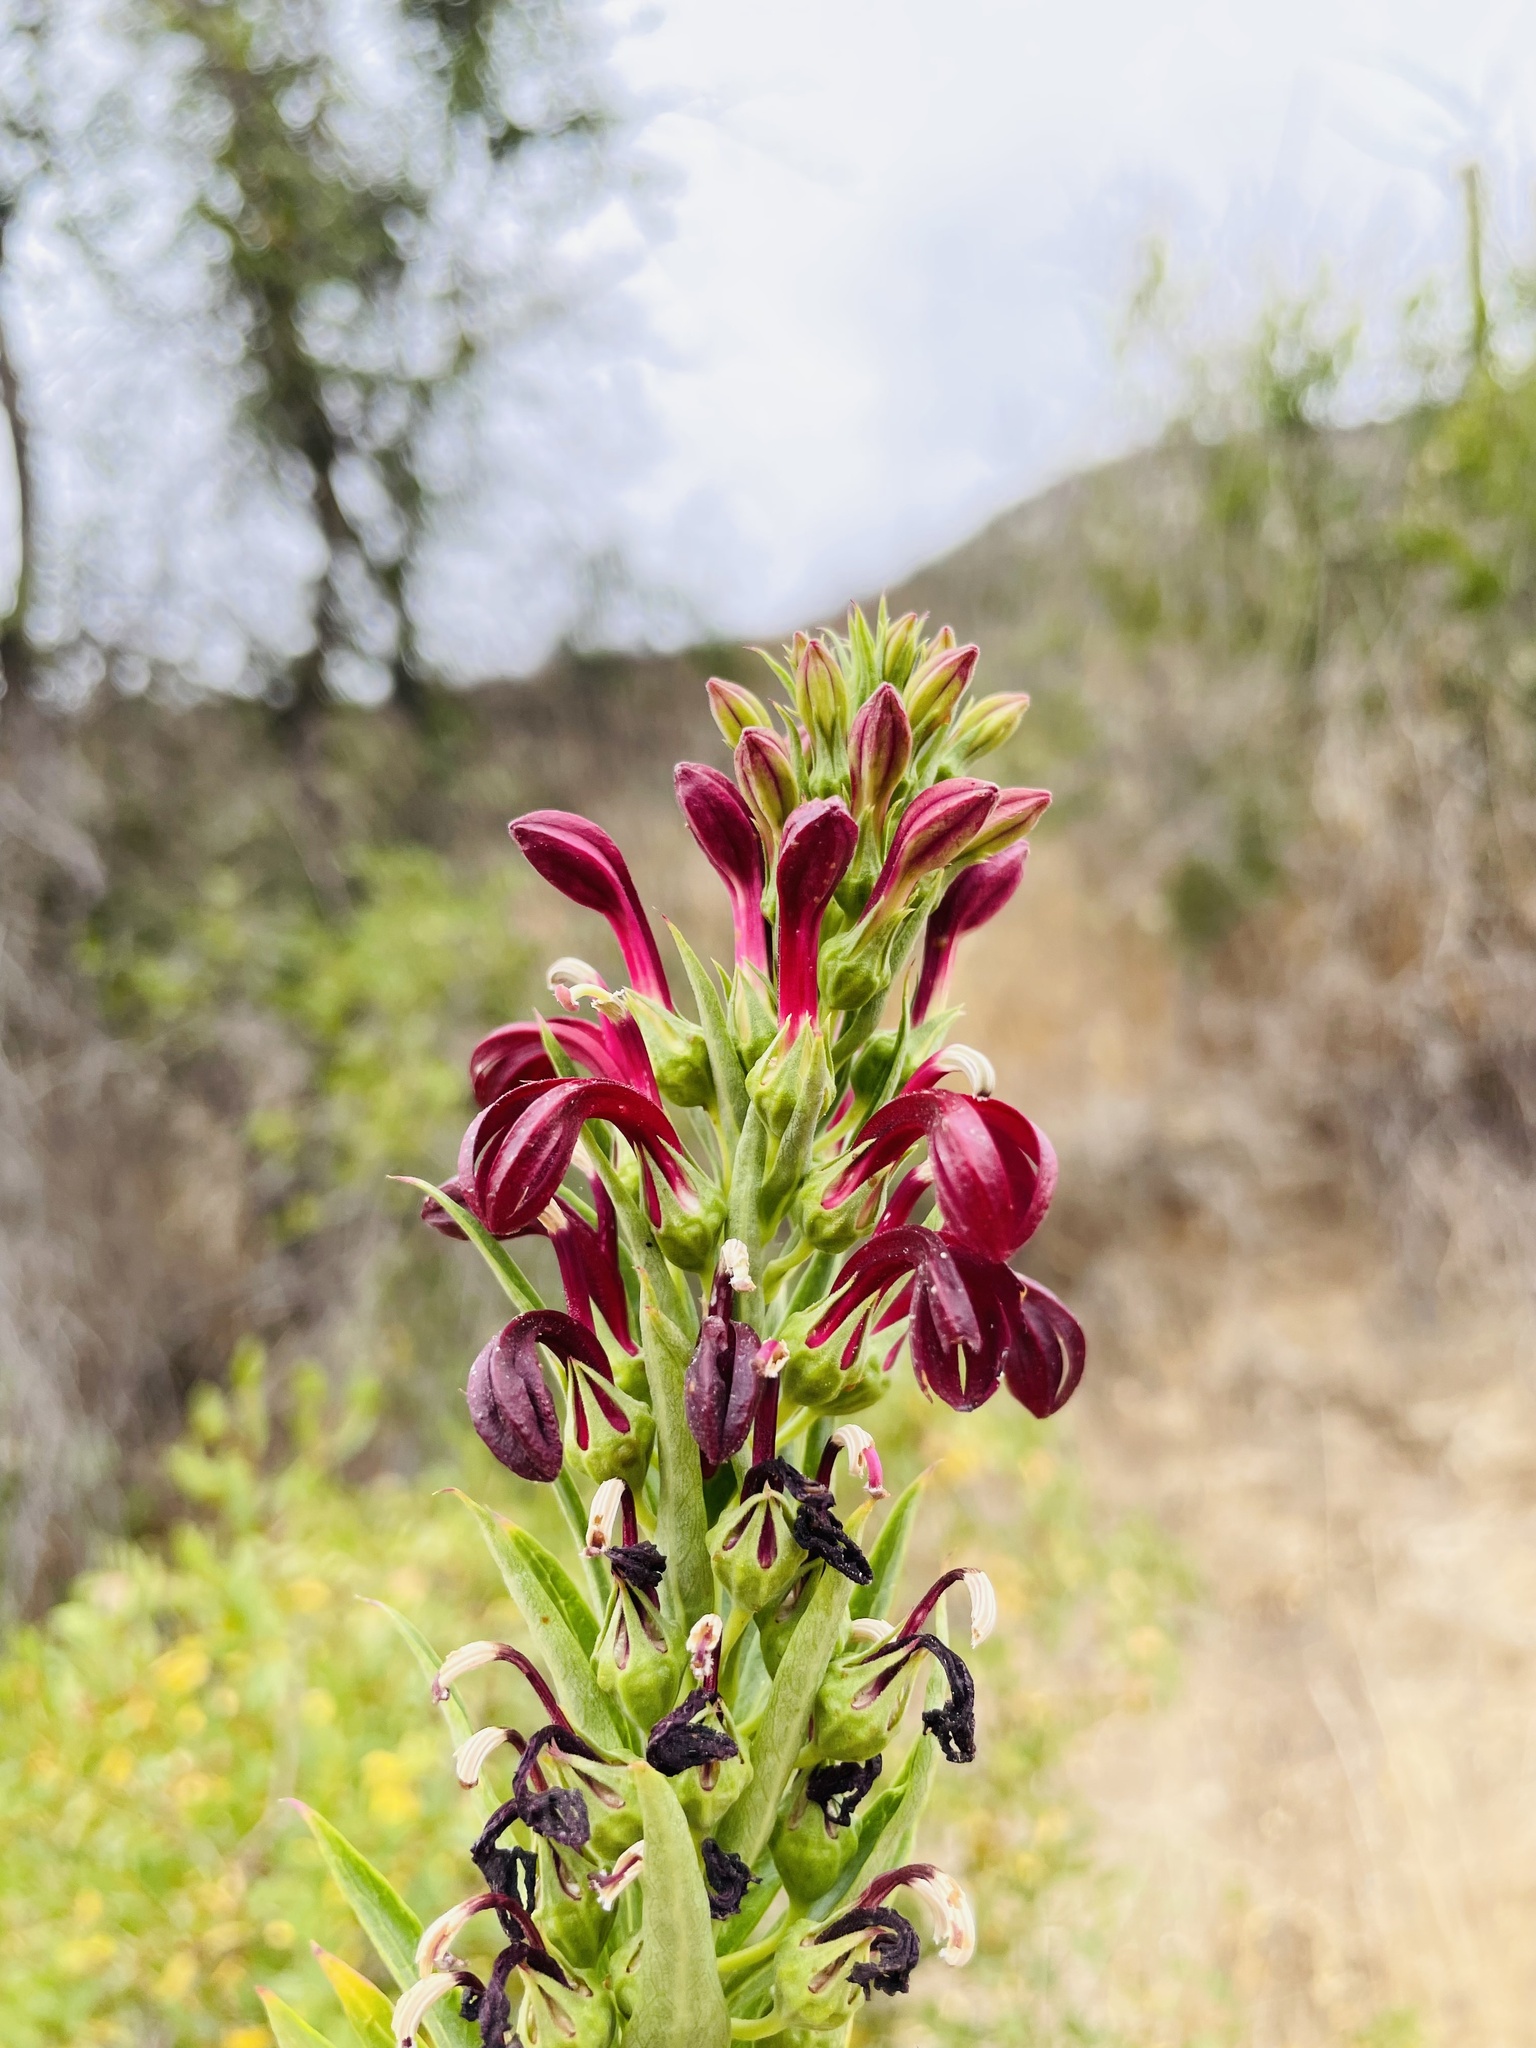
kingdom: Plantae
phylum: Tracheophyta
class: Magnoliopsida
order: Asterales
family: Campanulaceae
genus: Lobelia
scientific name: Lobelia polyphylla
